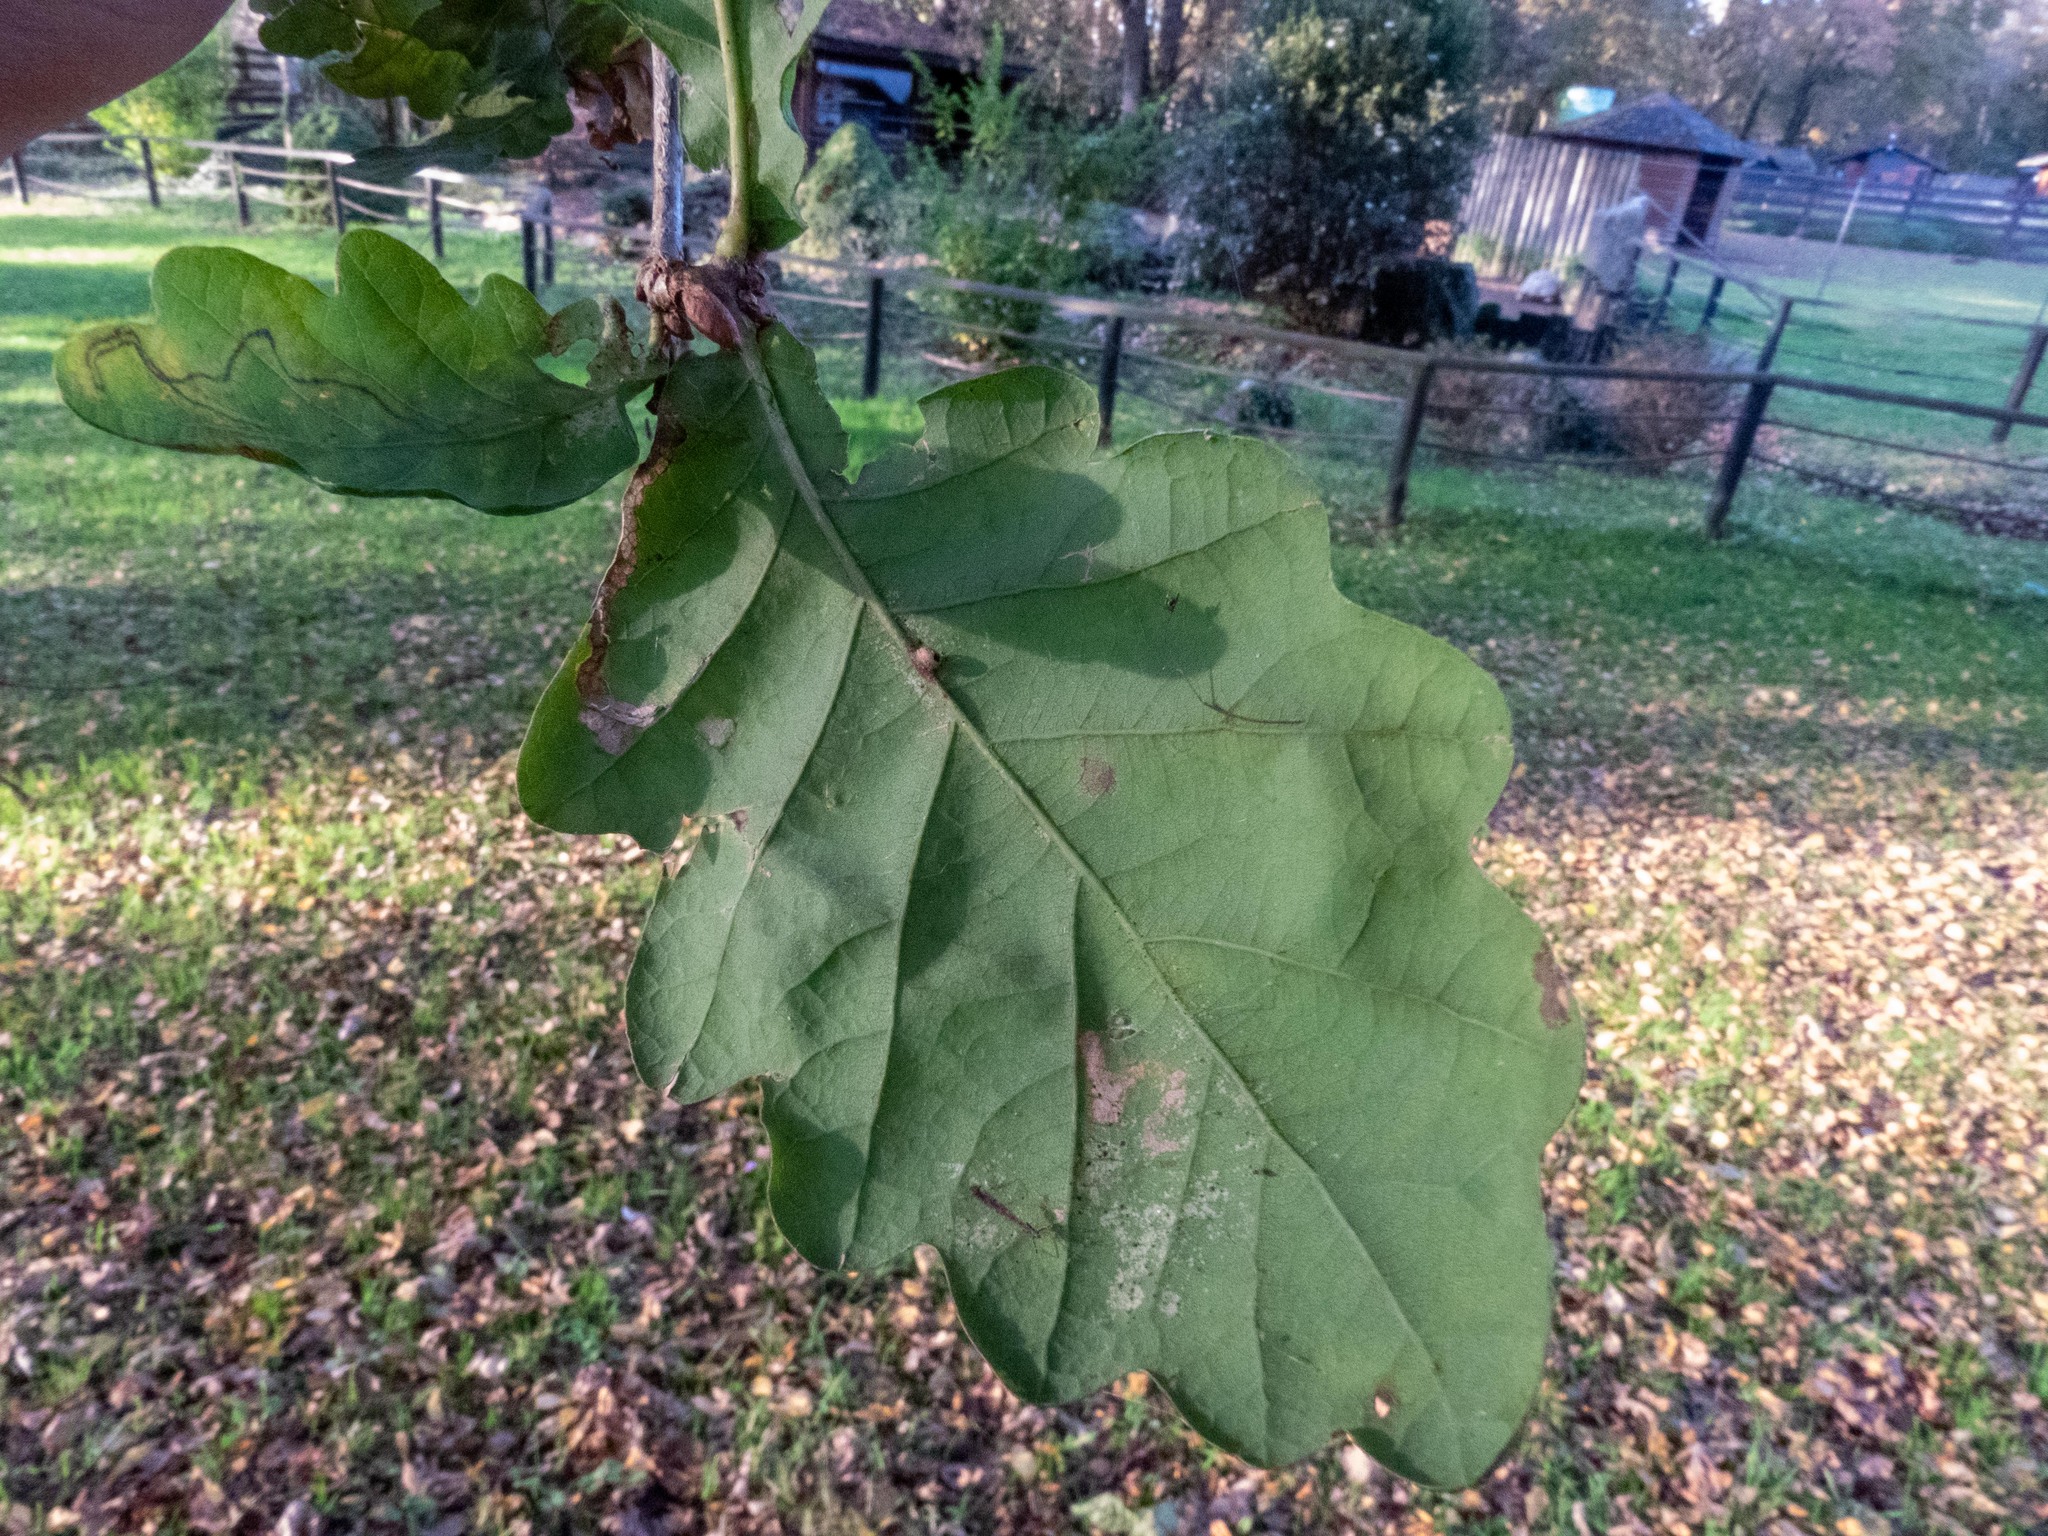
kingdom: Animalia
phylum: Arthropoda
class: Insecta
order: Hymenoptera
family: Cynipidae
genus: Neuroterus
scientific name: Neuroterus anthracinus
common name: Oyster gall
